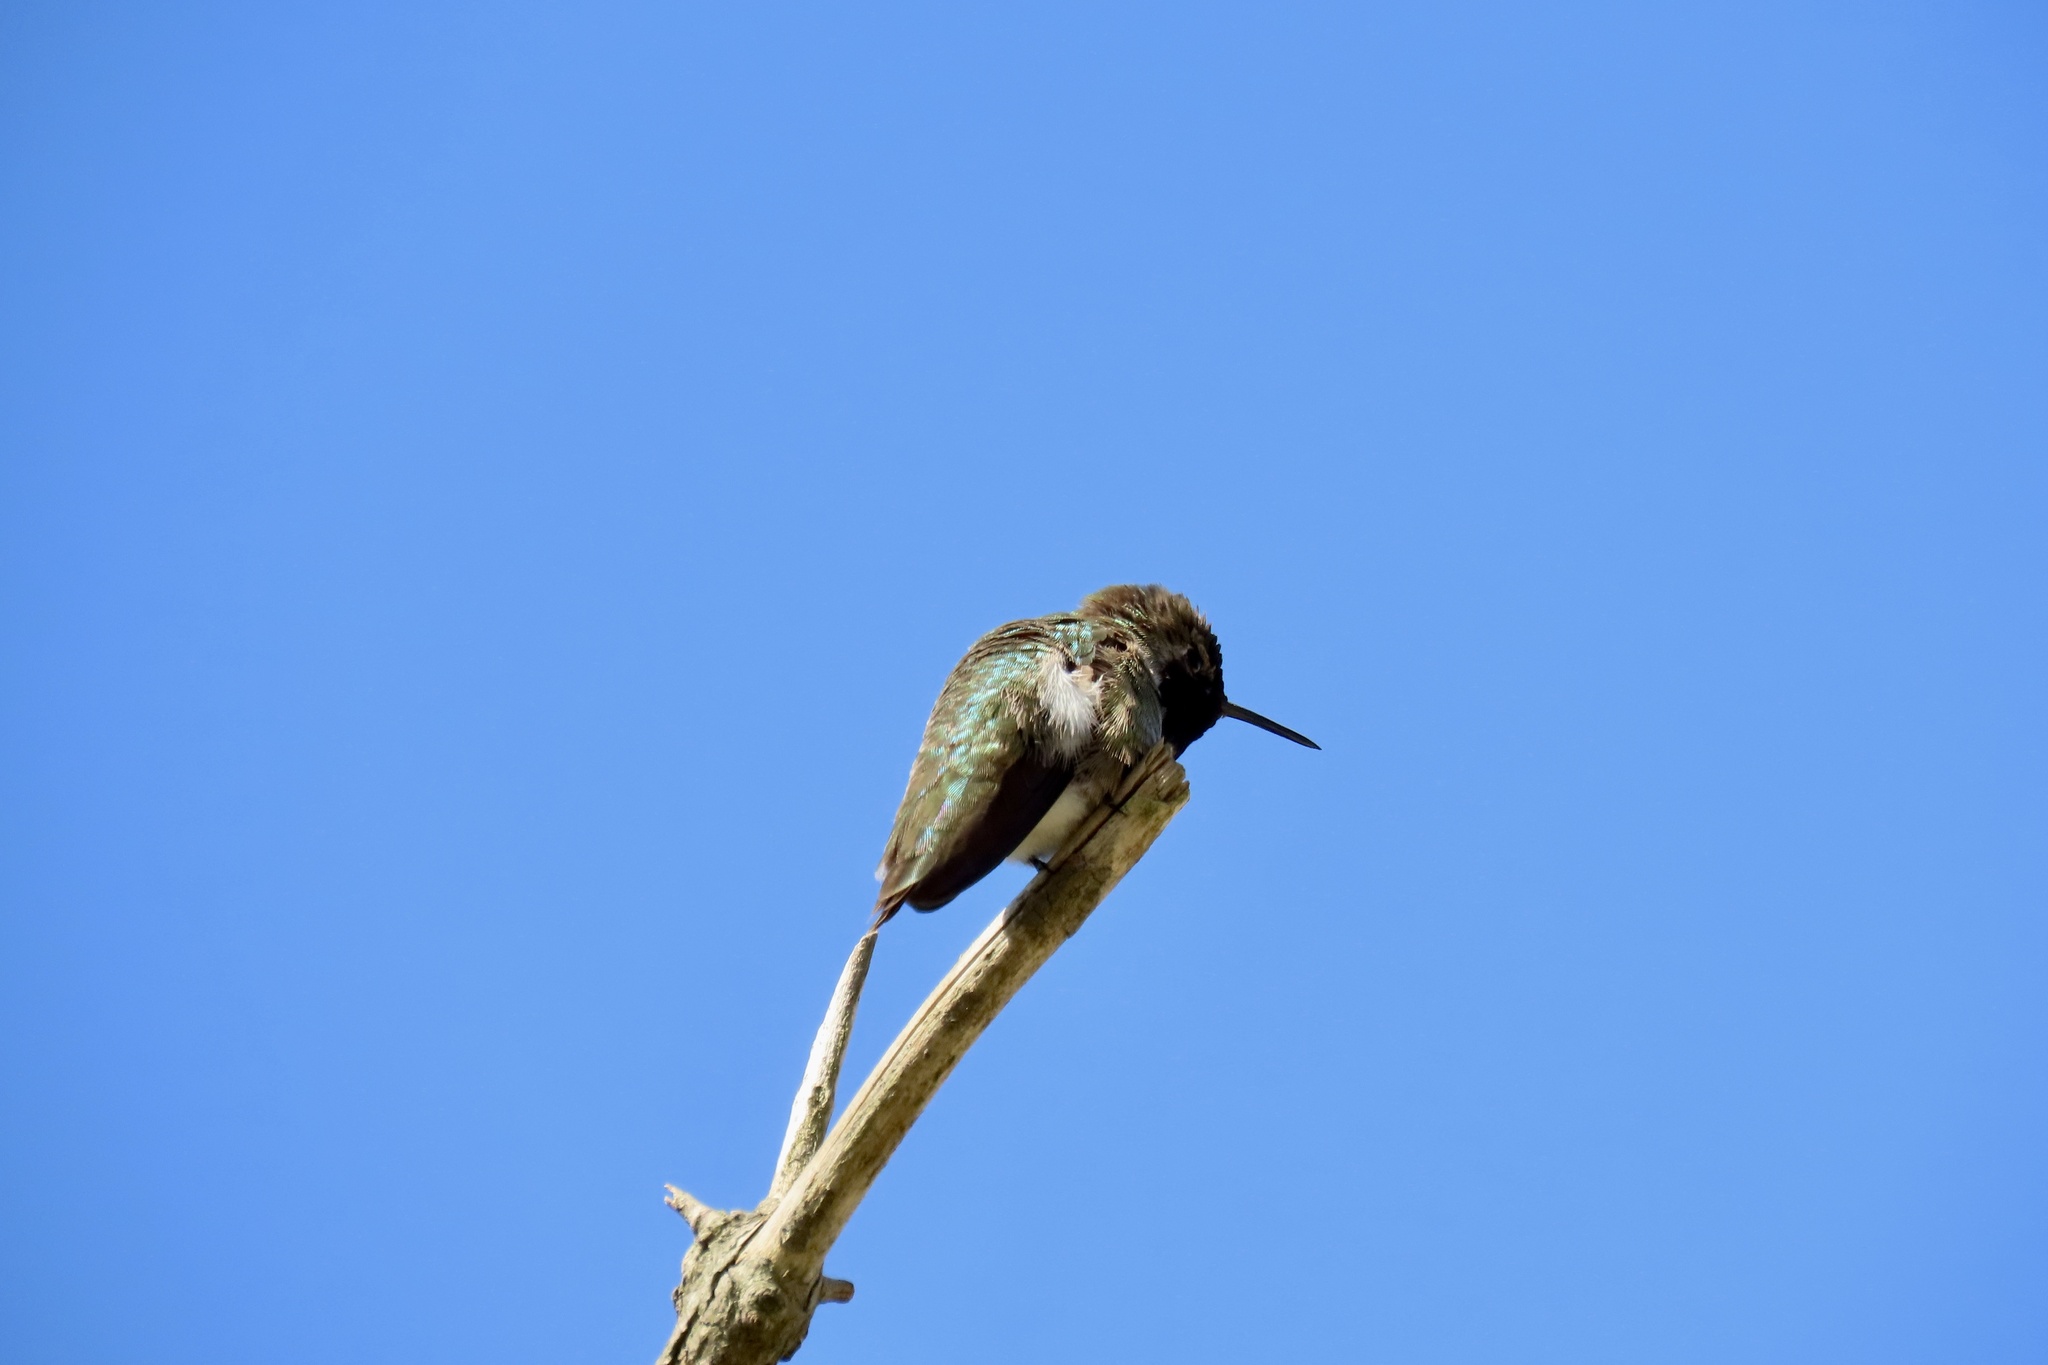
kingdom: Animalia
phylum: Chordata
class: Aves
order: Apodiformes
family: Trochilidae
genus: Calypte
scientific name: Calypte anna
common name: Anna's hummingbird
